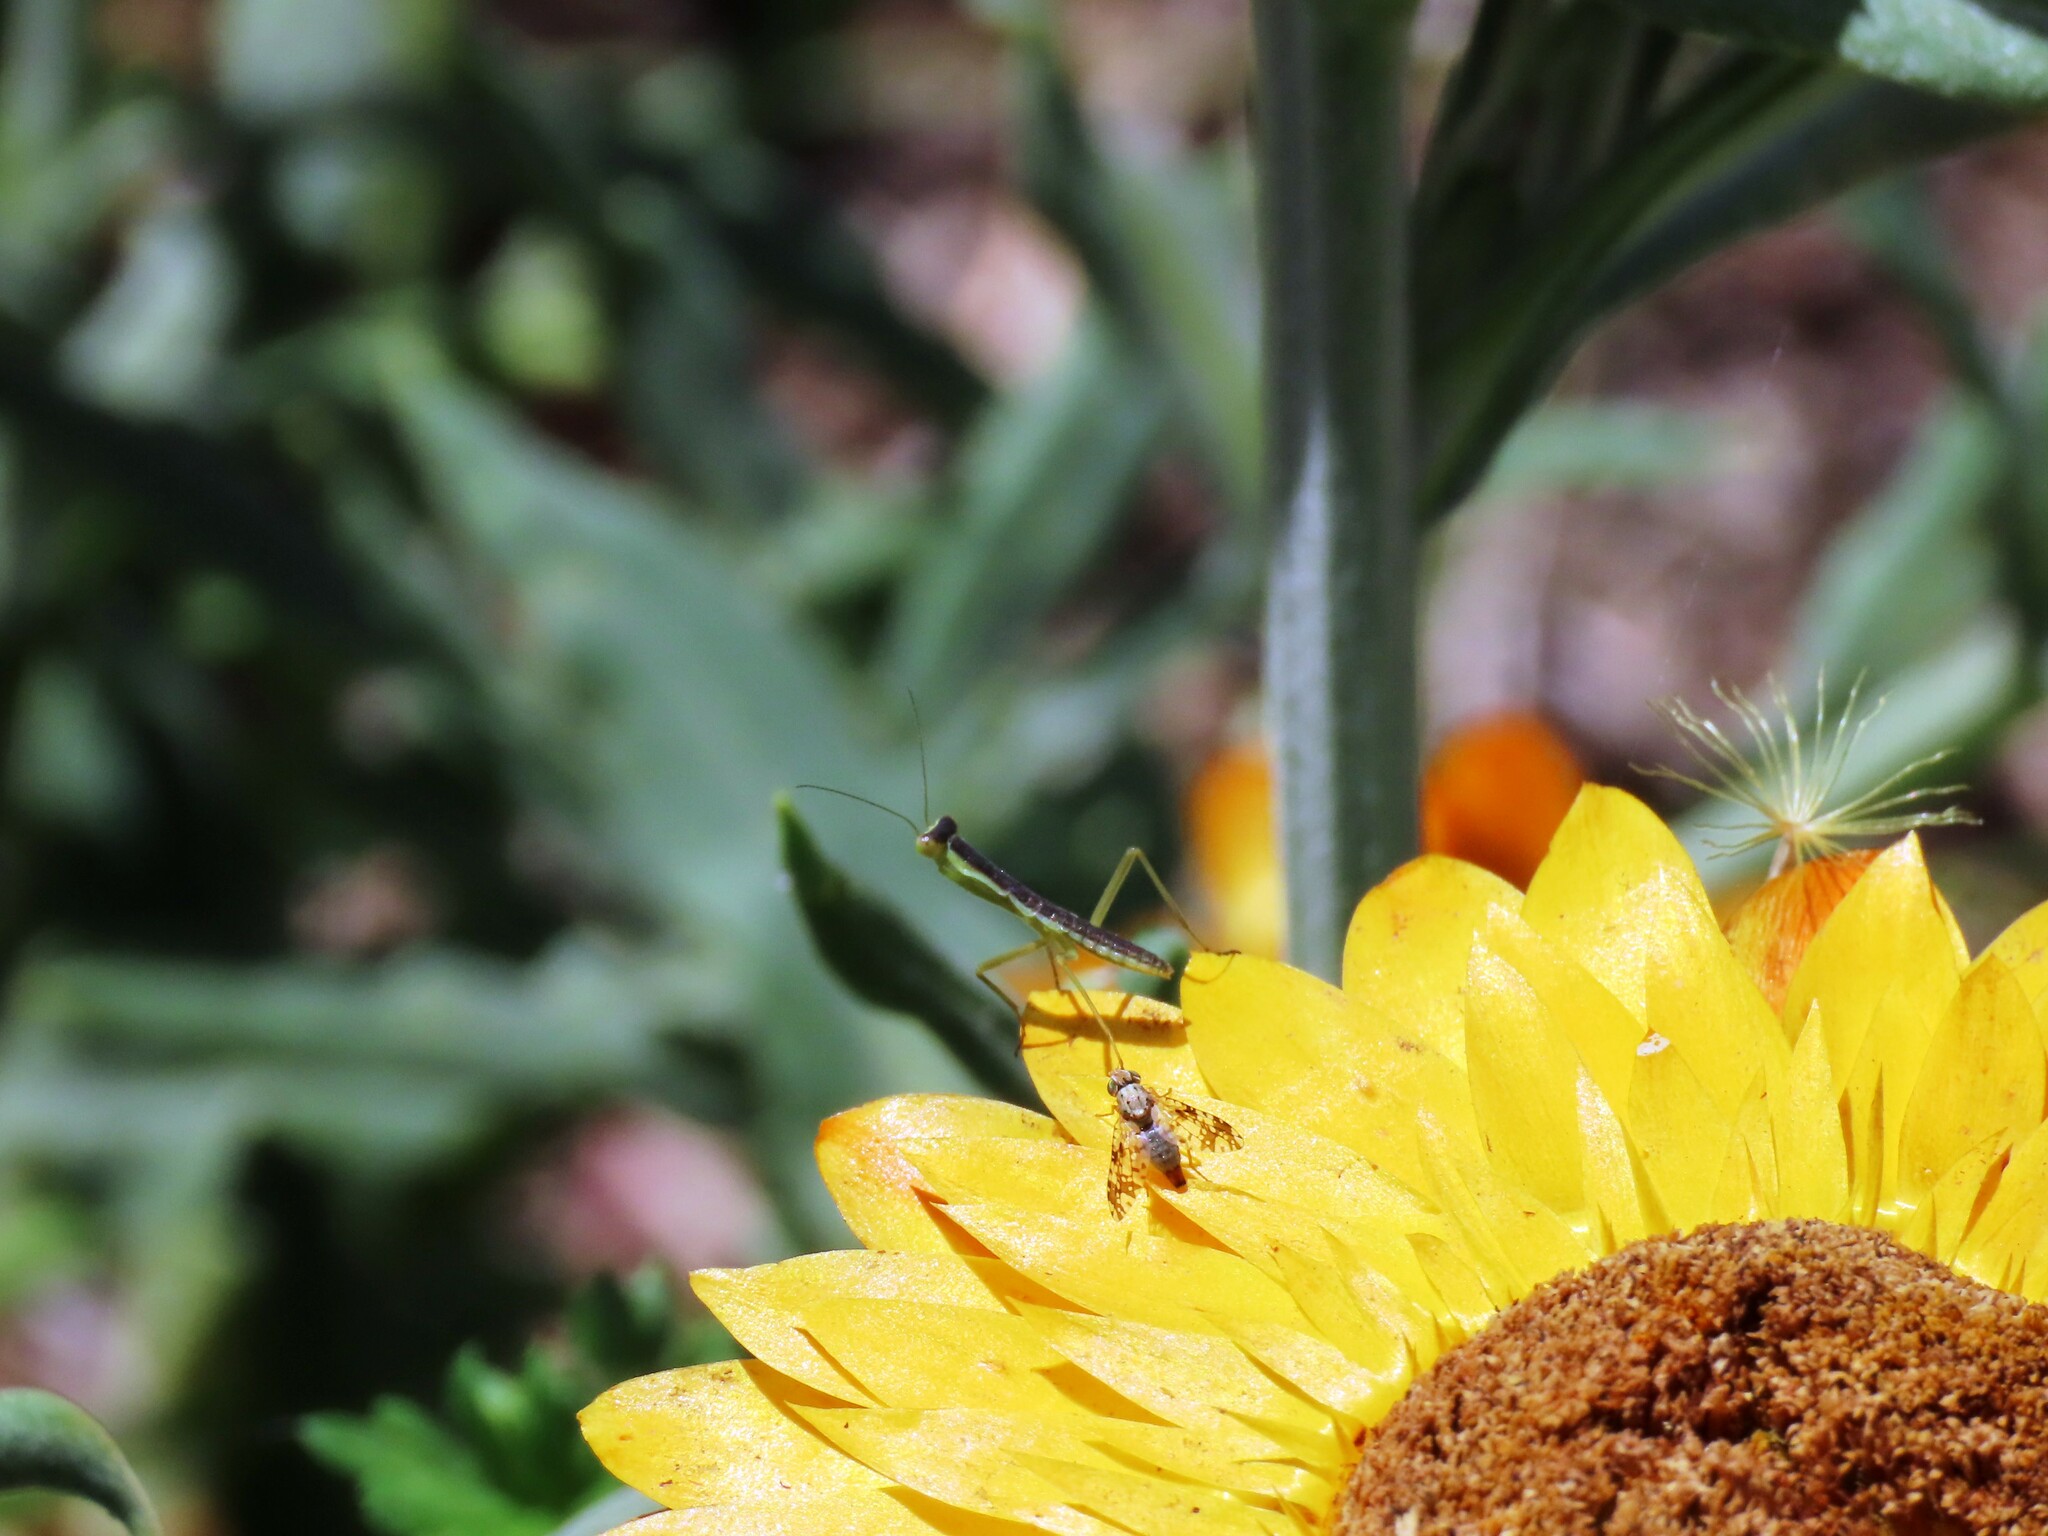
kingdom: Animalia
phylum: Arthropoda
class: Insecta
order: Mantodea
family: Mantidae
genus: Orthodera
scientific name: Orthodera ministralis
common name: Mantis
